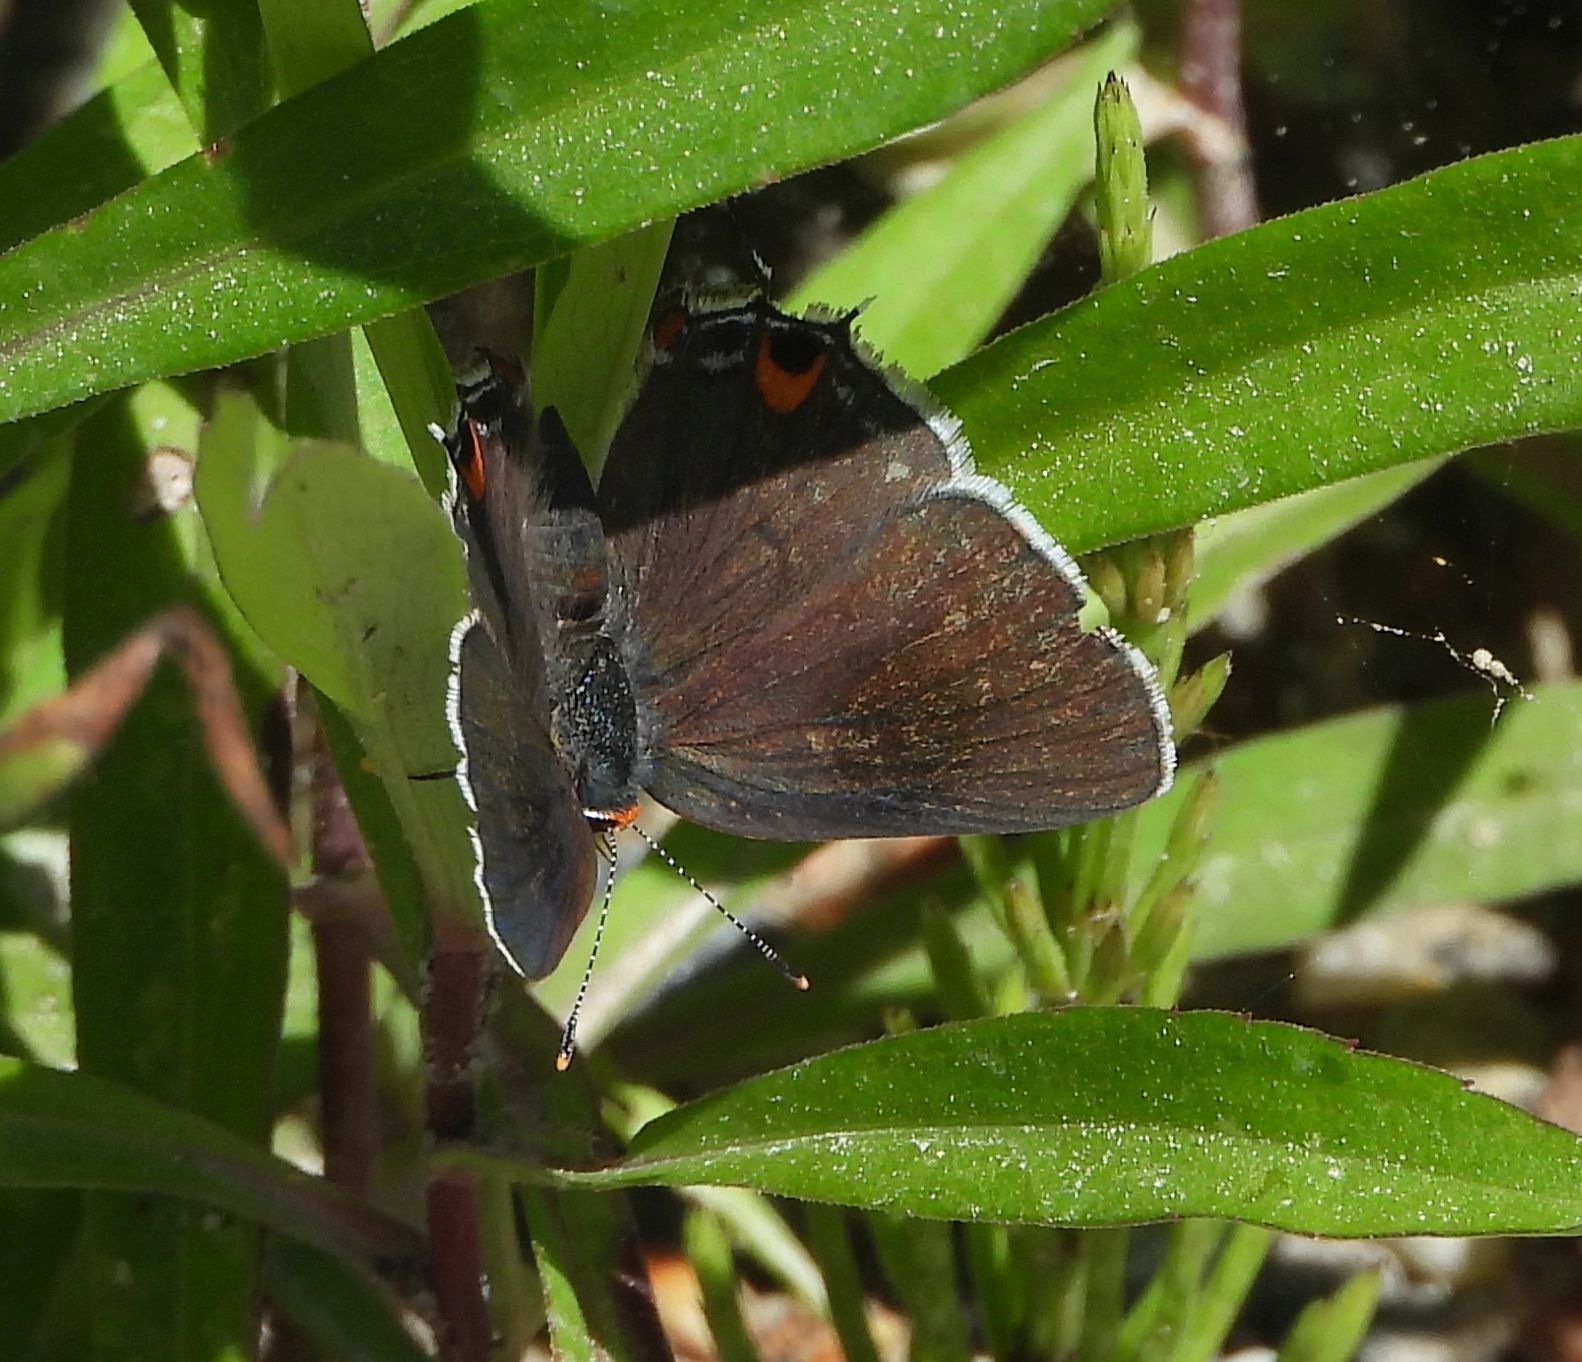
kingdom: Animalia
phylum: Arthropoda
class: Insecta
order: Lepidoptera
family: Lycaenidae
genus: Strymon
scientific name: Strymon melinus
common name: Gray hairstreak
